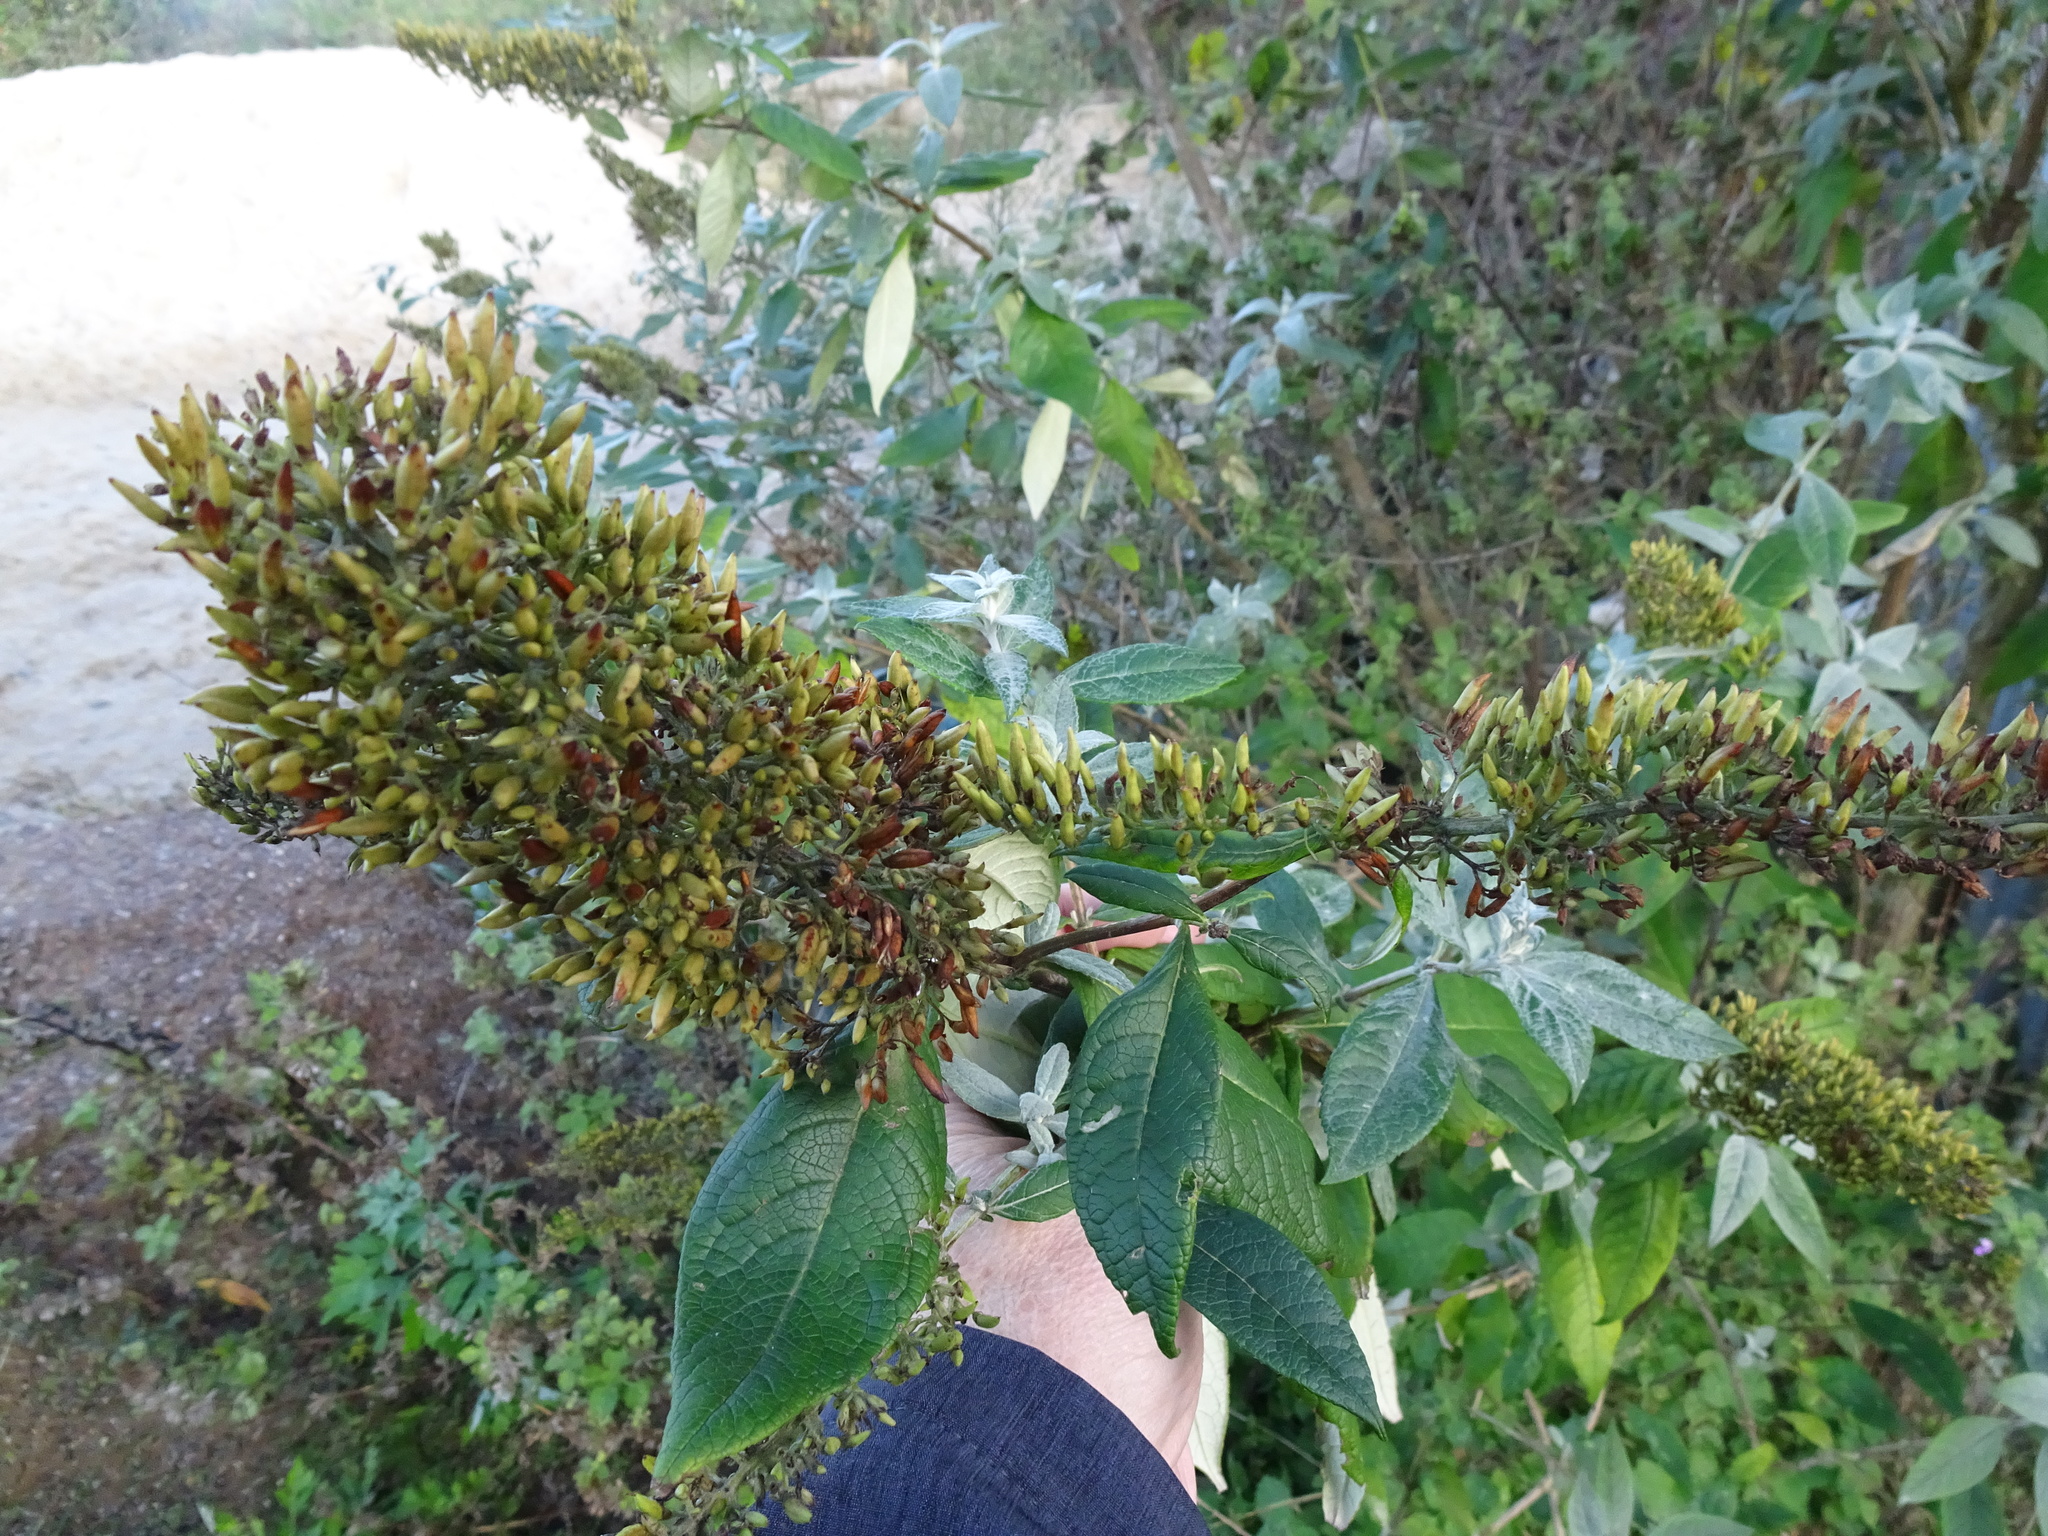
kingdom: Plantae
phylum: Tracheophyta
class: Magnoliopsida
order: Lamiales
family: Scrophulariaceae
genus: Buddleja
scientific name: Buddleja davidii
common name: Butterfly-bush
